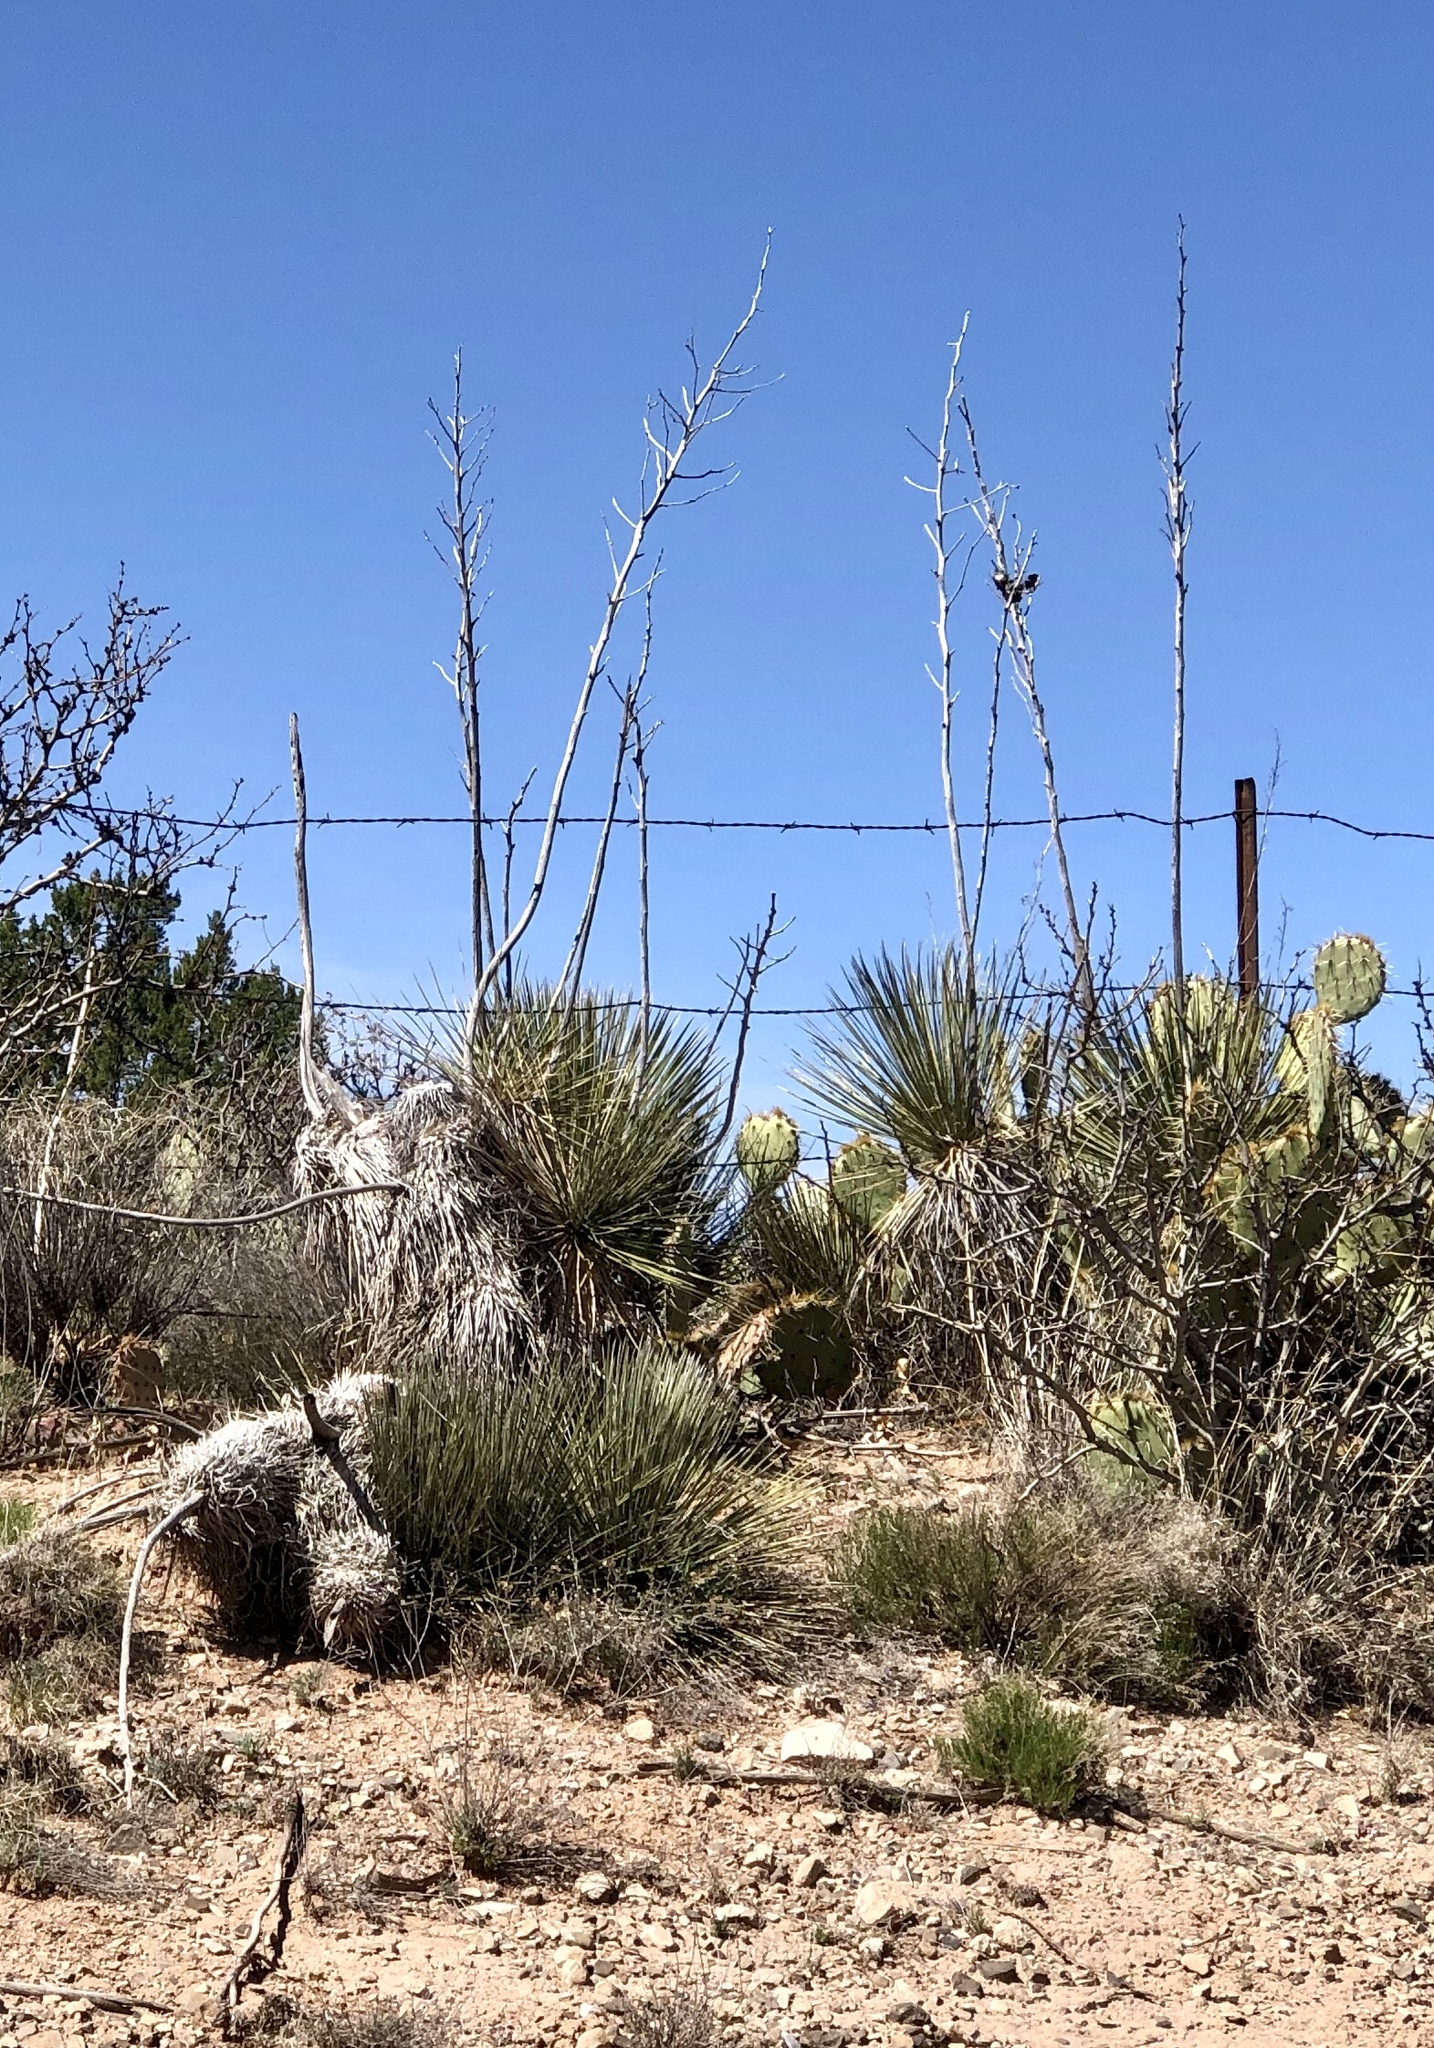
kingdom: Plantae
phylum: Tracheophyta
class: Liliopsida
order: Asparagales
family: Asparagaceae
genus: Yucca
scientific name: Yucca elata
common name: Palmella
